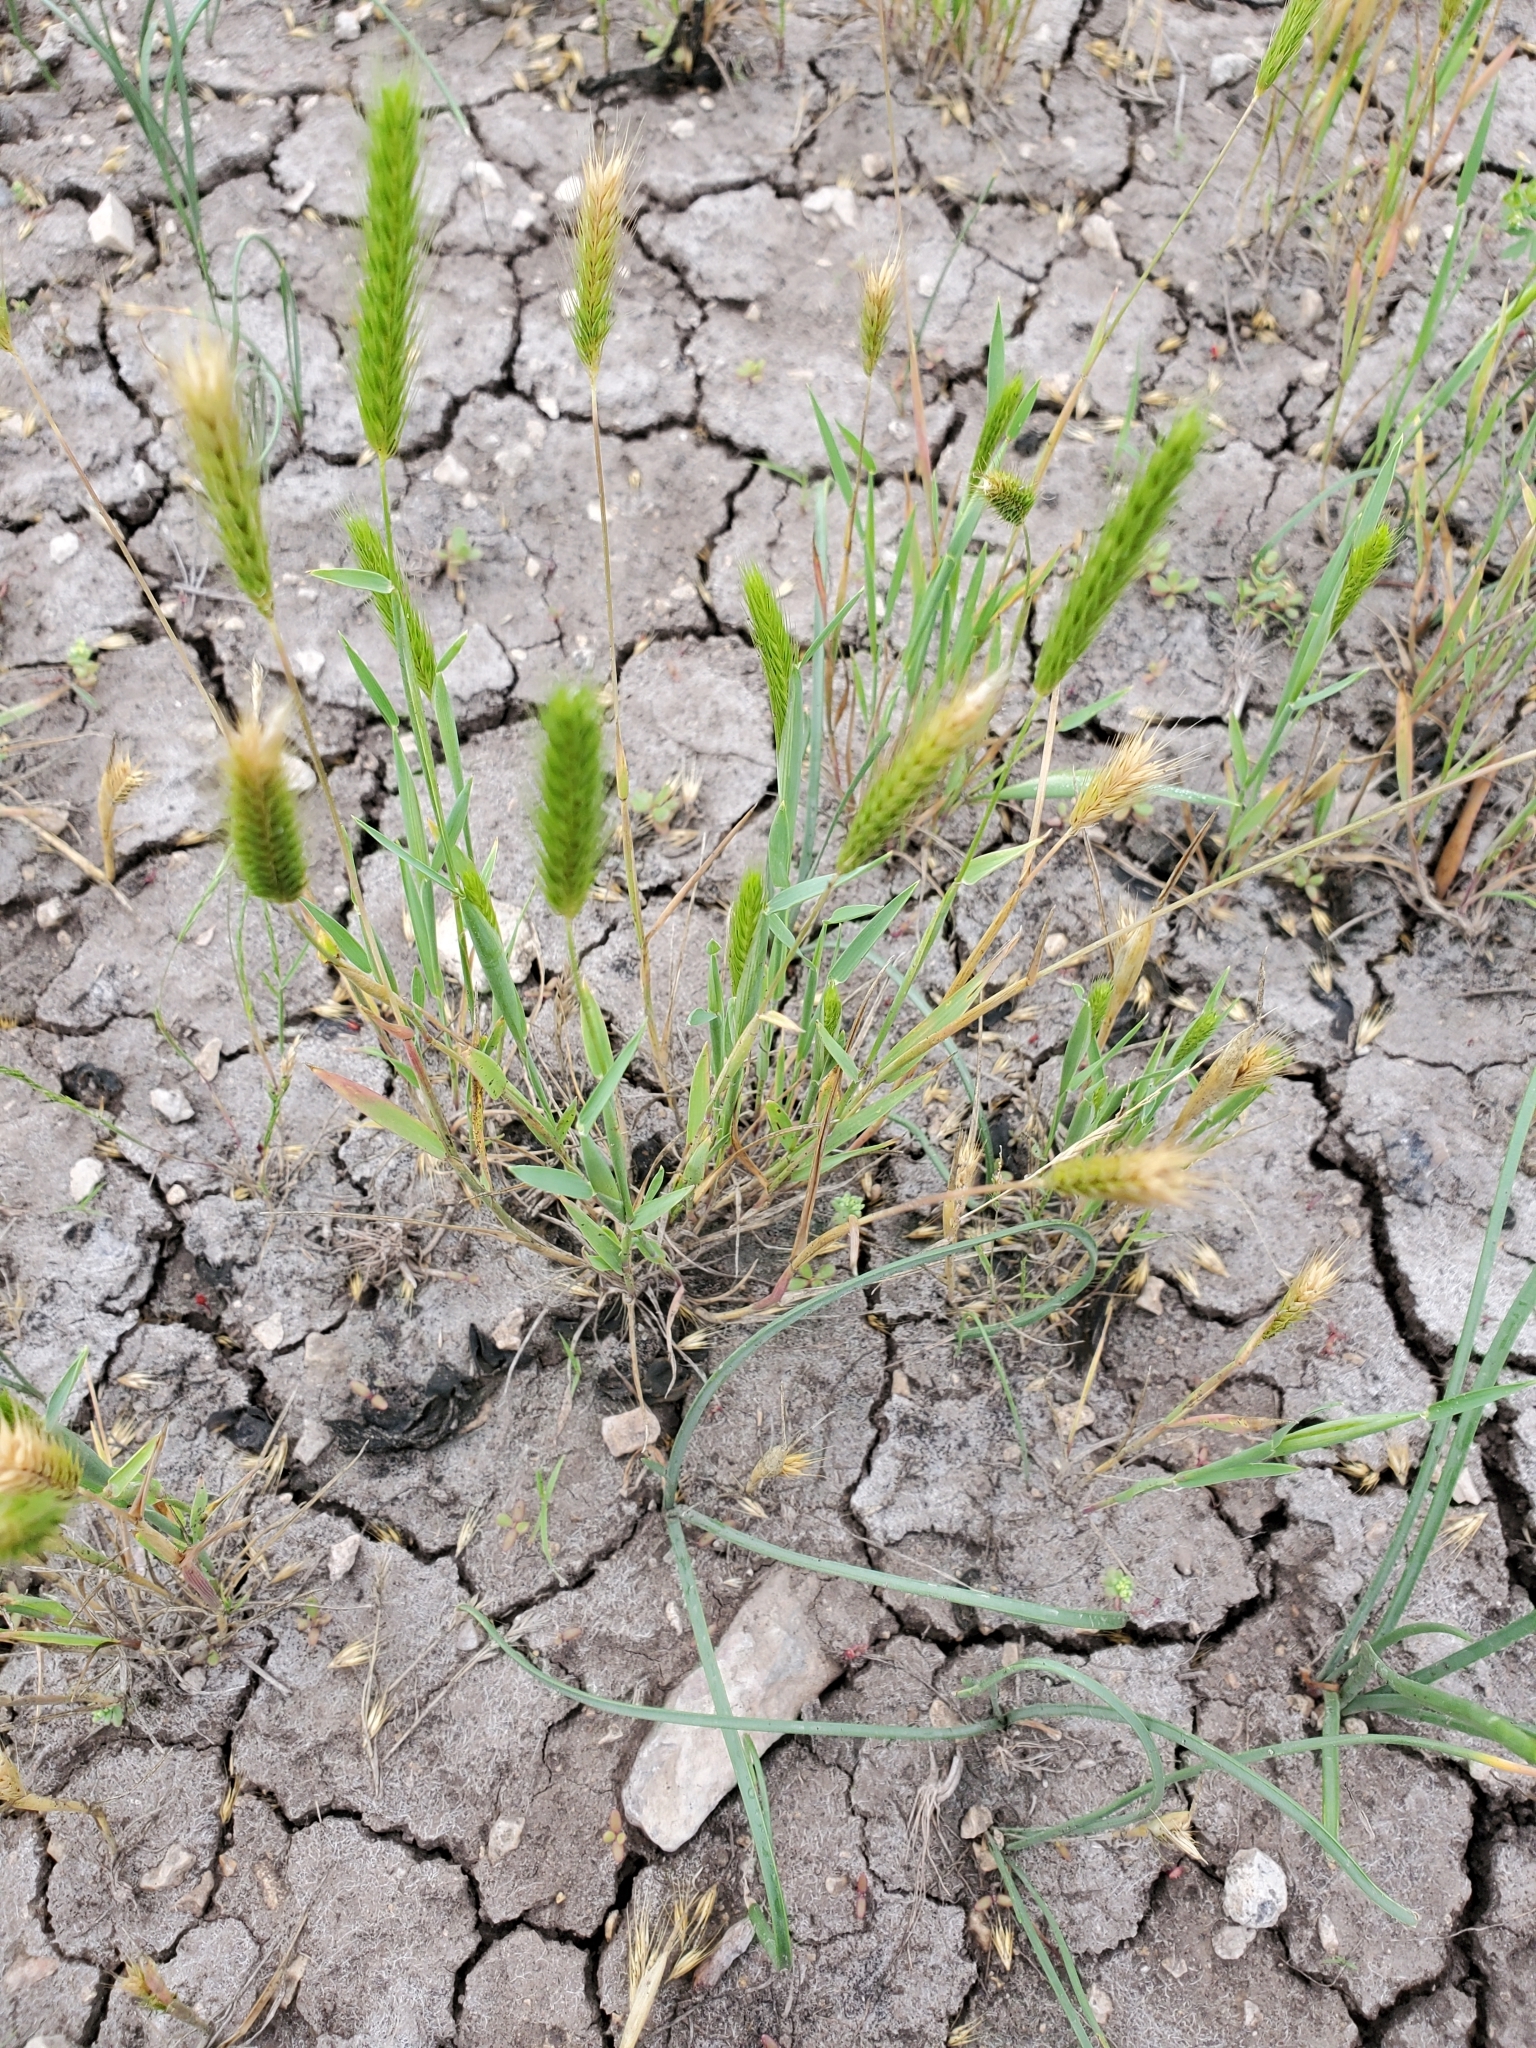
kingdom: Plantae
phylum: Tracheophyta
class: Liliopsida
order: Poales
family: Poaceae
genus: Hordeum
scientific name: Hordeum pusillum
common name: Little barley
